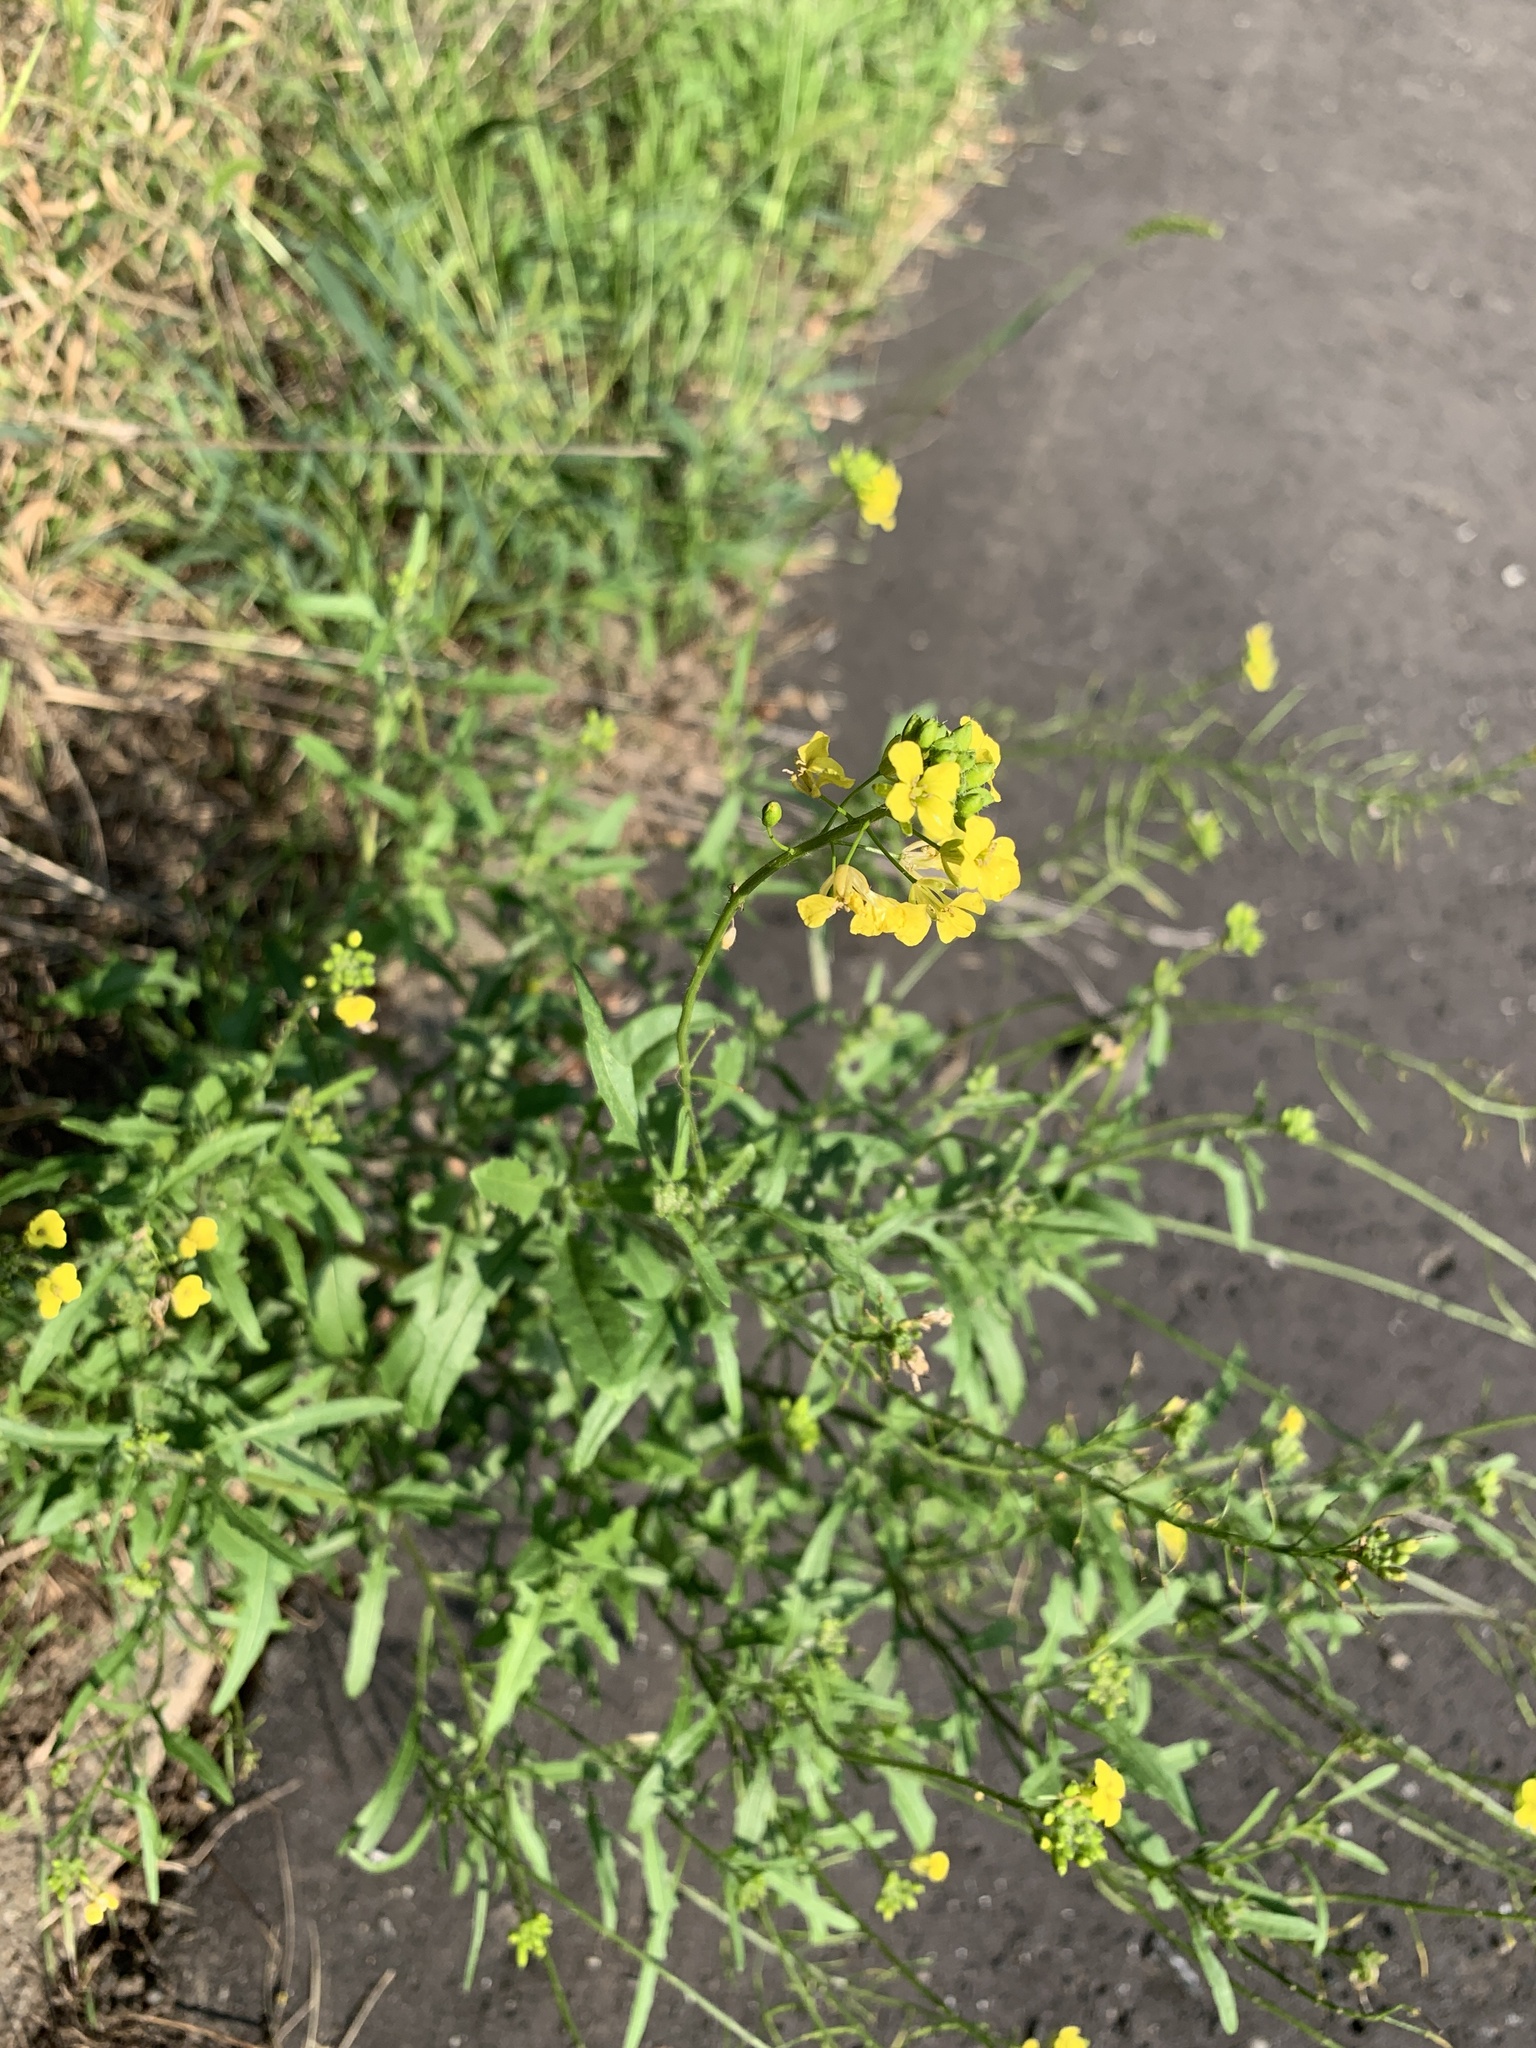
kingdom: Plantae
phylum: Tracheophyta
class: Magnoliopsida
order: Fabales
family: Fabaceae
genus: Lotus
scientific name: Lotus corniculatus
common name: Common bird's-foot-trefoil
